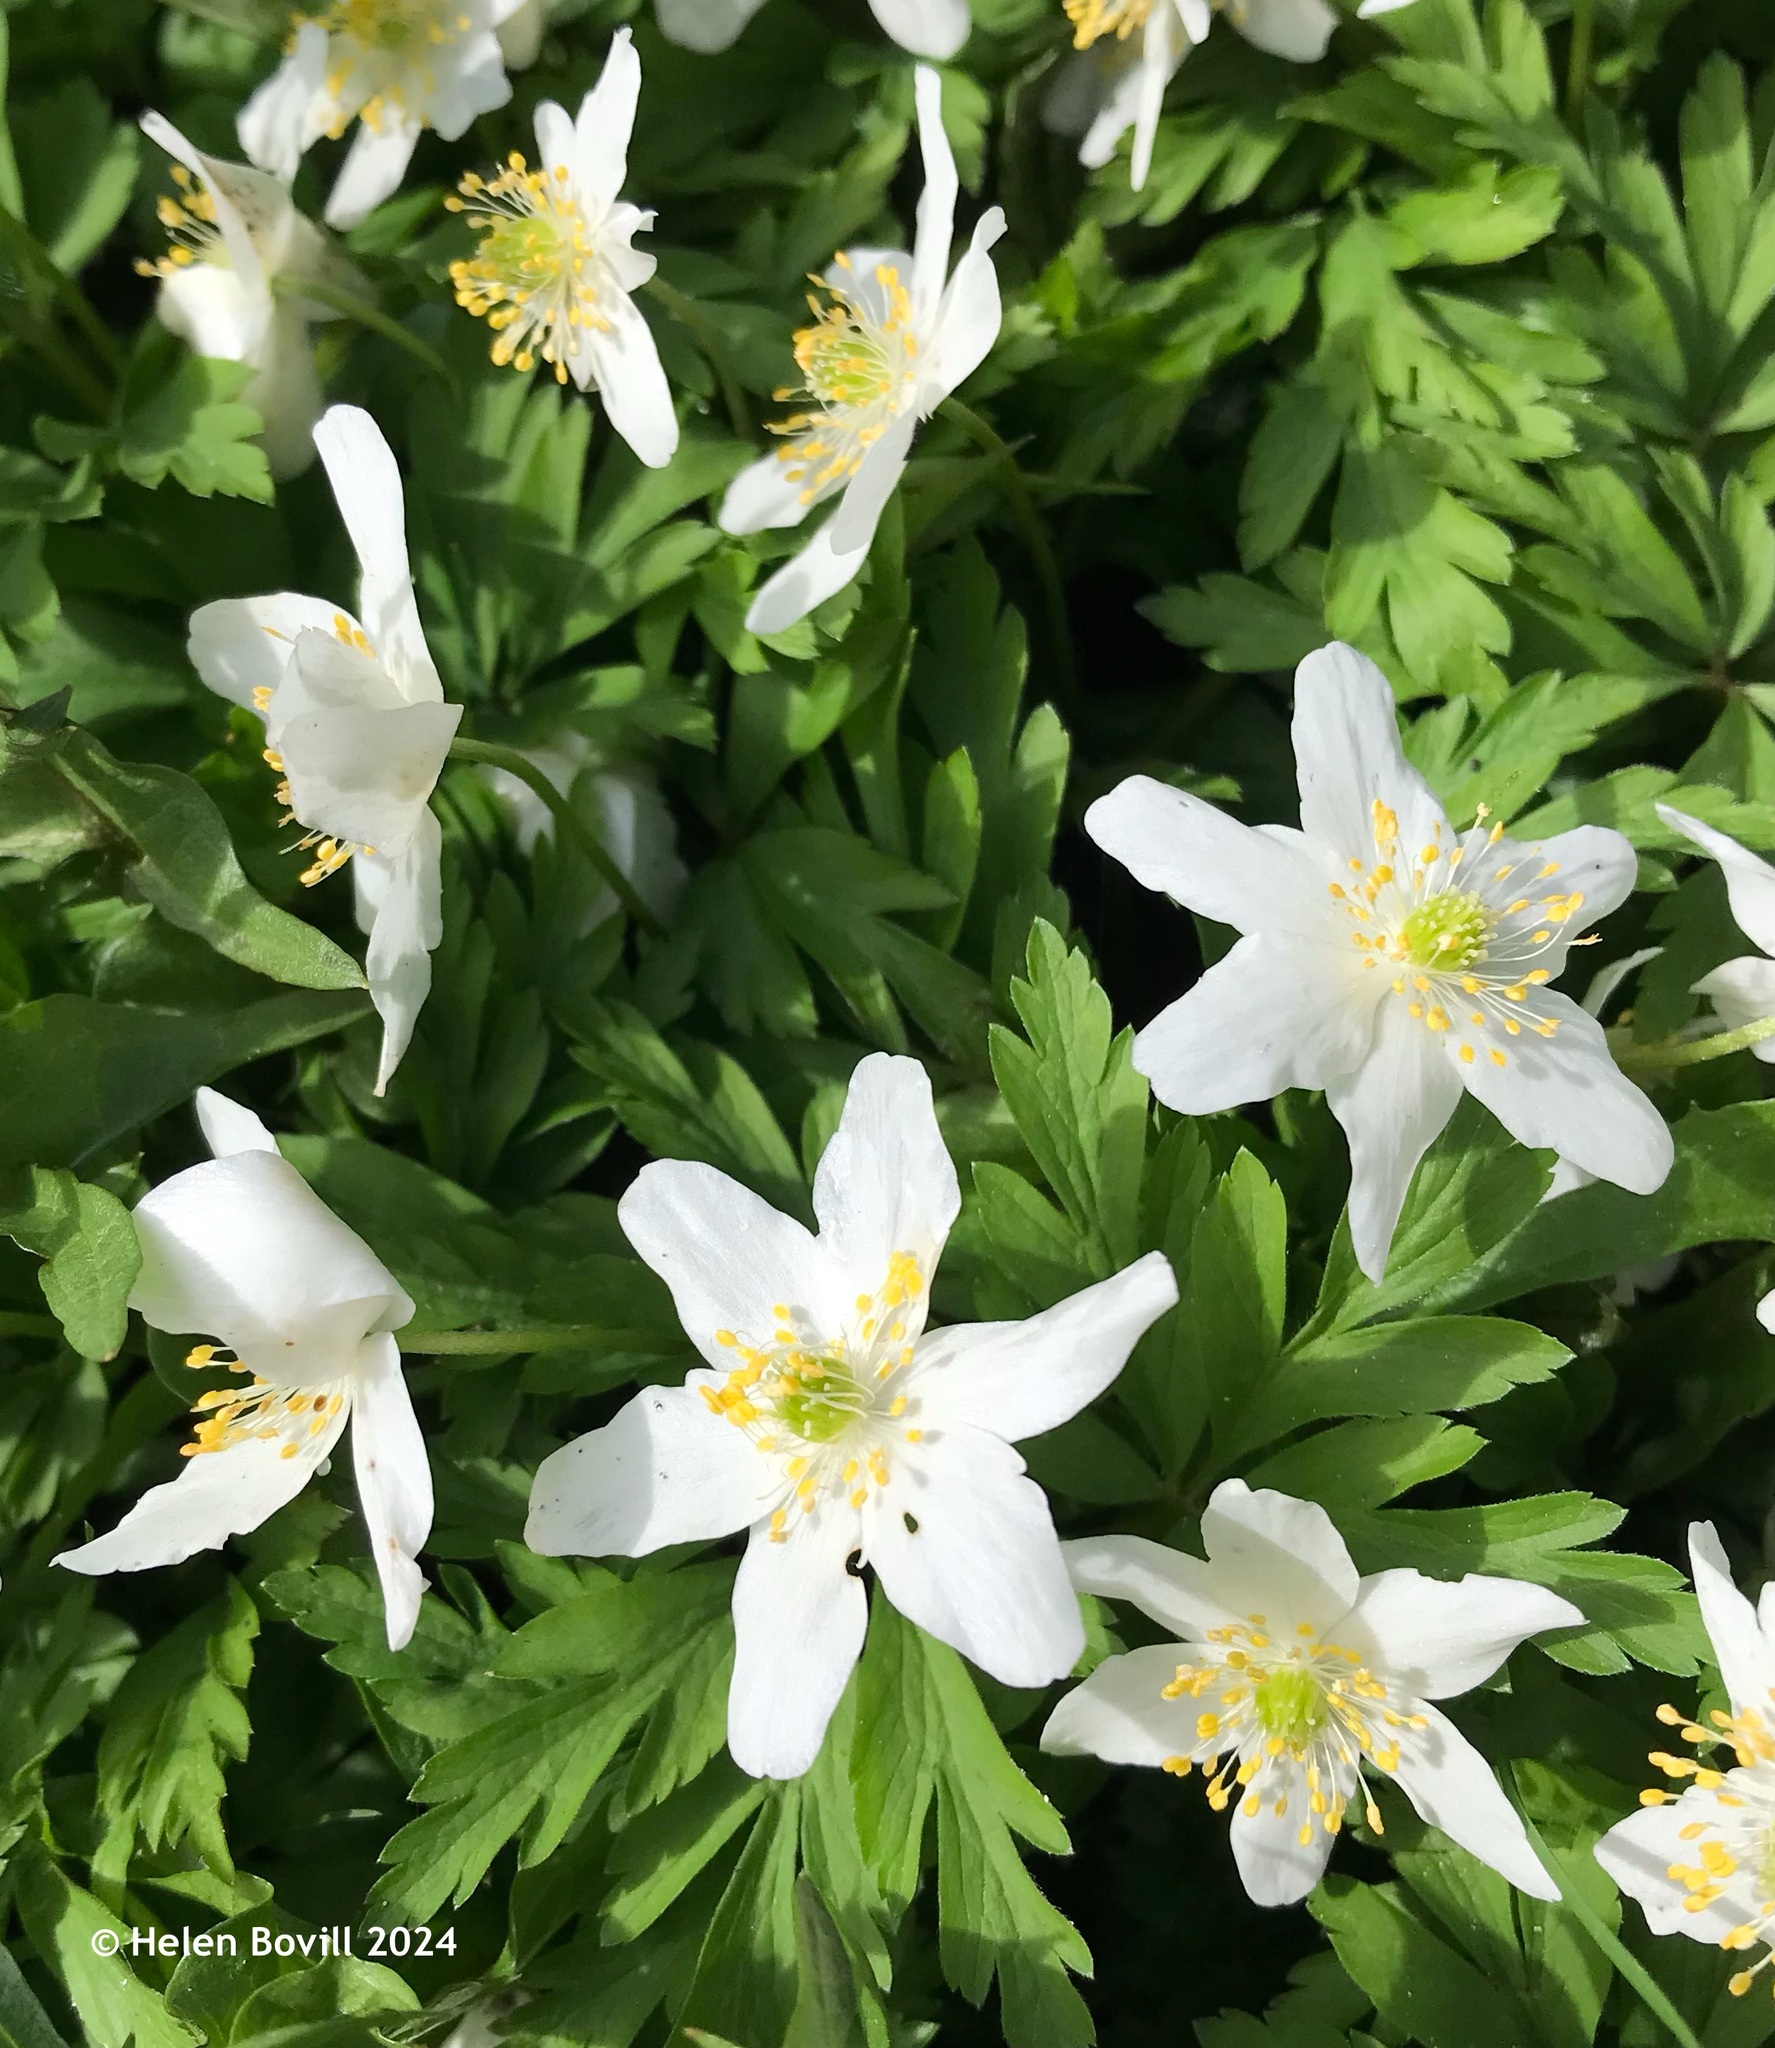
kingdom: Plantae
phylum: Tracheophyta
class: Magnoliopsida
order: Ranunculales
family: Ranunculaceae
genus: Anemone
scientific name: Anemone nemorosa
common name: Wood anemone
